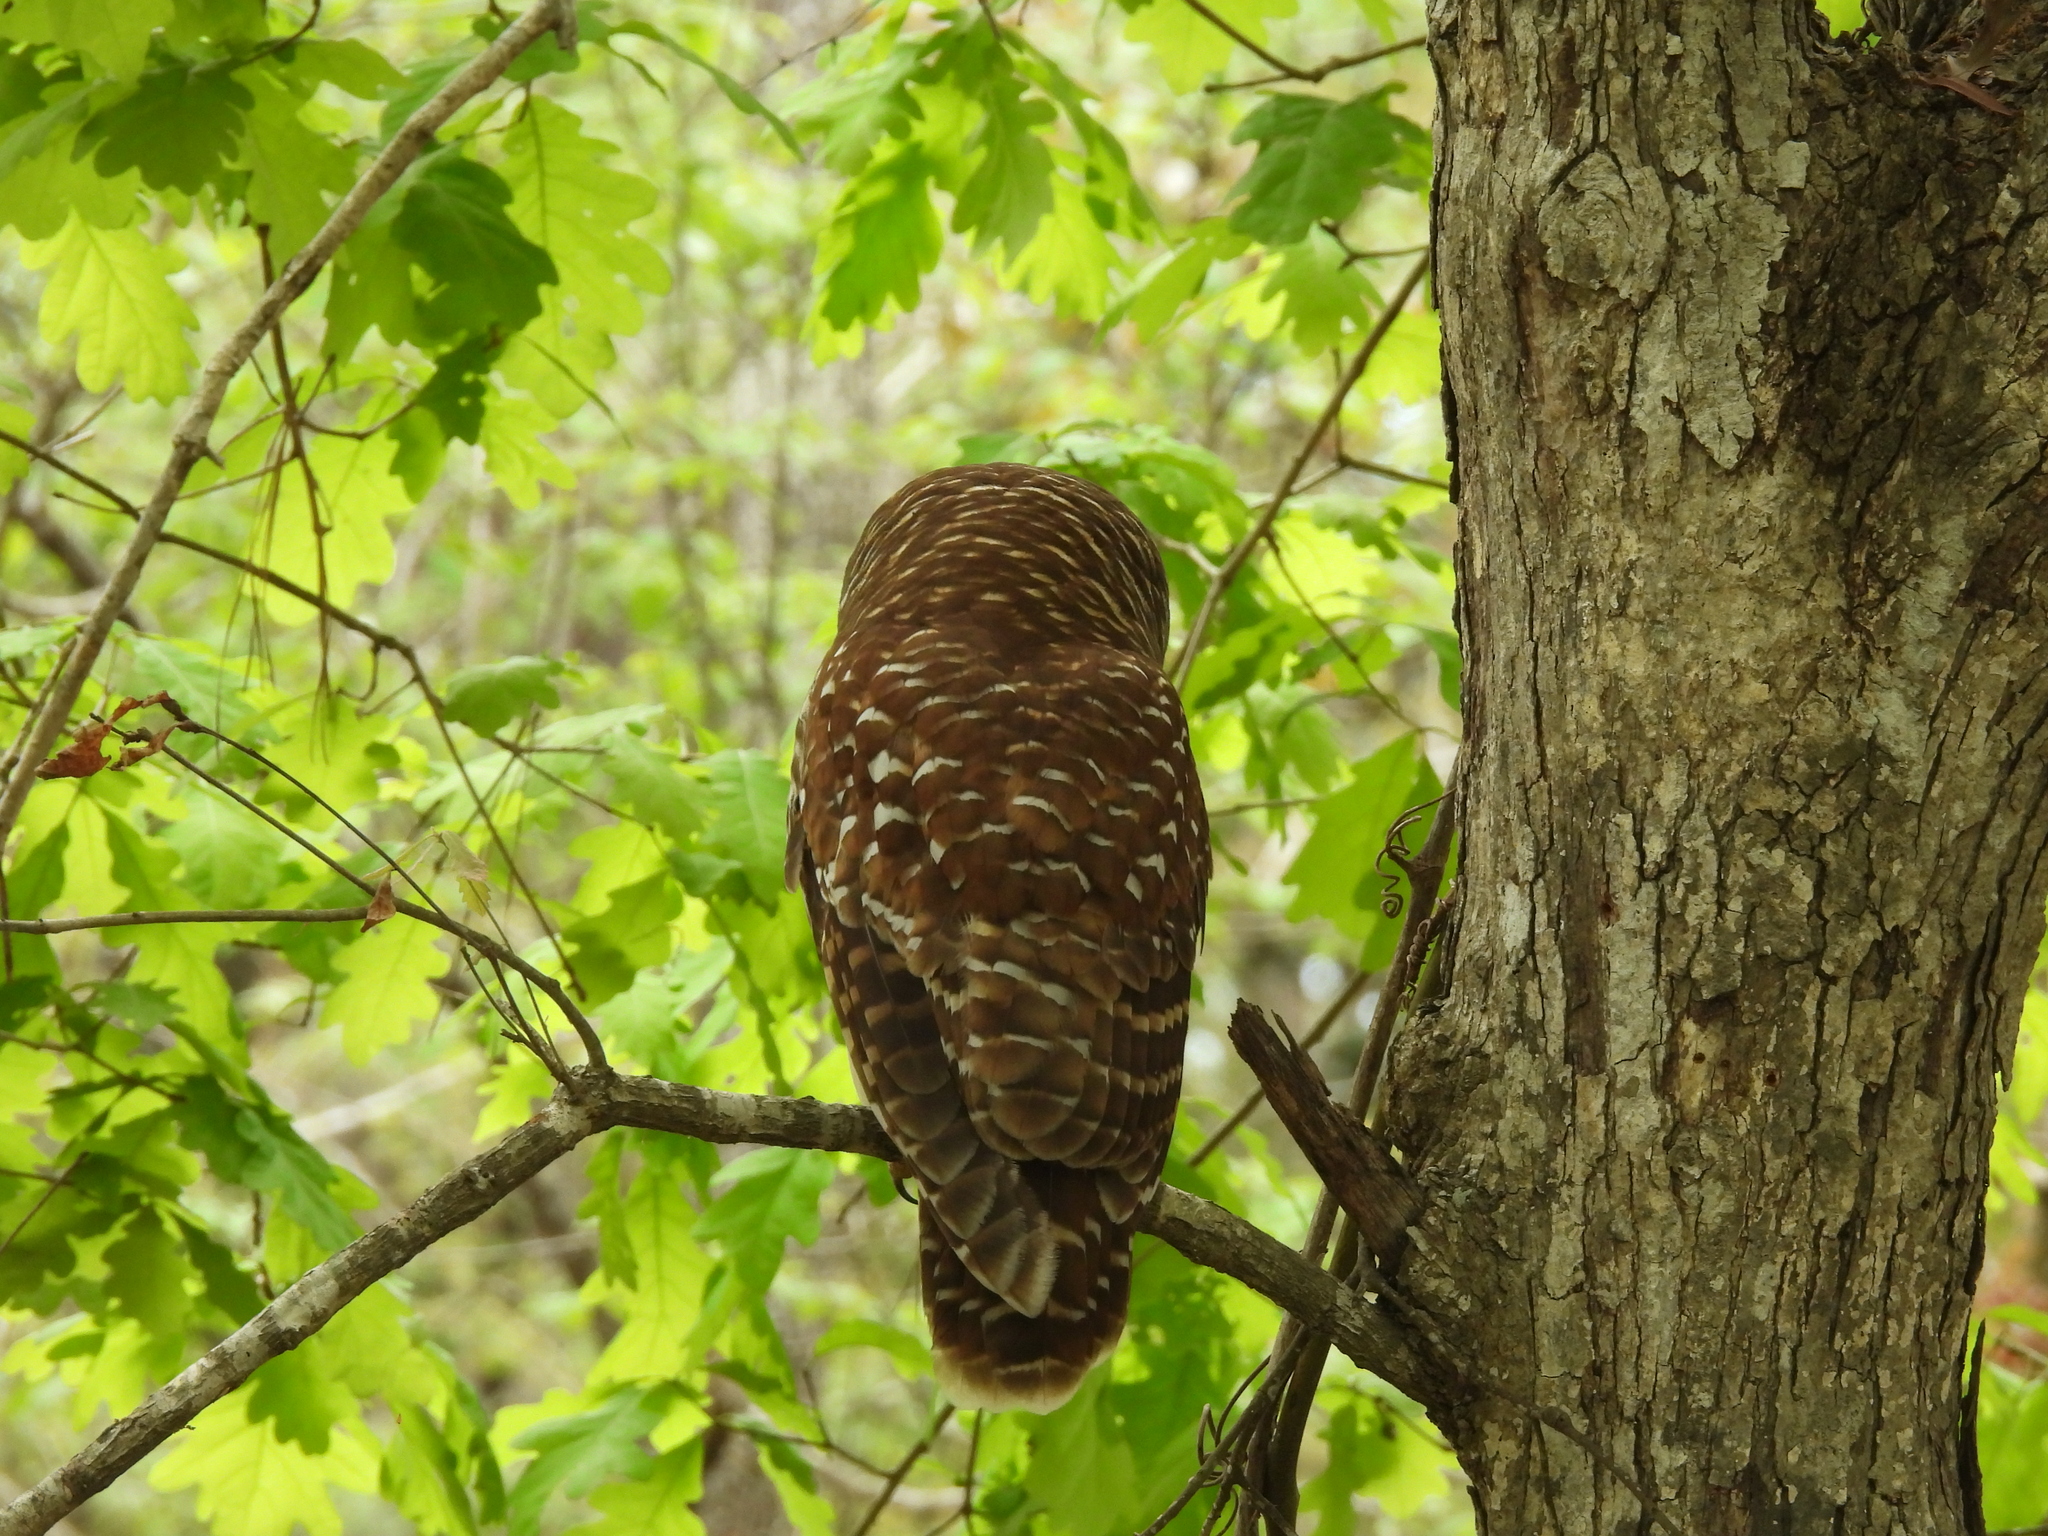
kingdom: Animalia
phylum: Chordata
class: Aves
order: Strigiformes
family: Strigidae
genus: Strix
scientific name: Strix varia
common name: Barred owl
